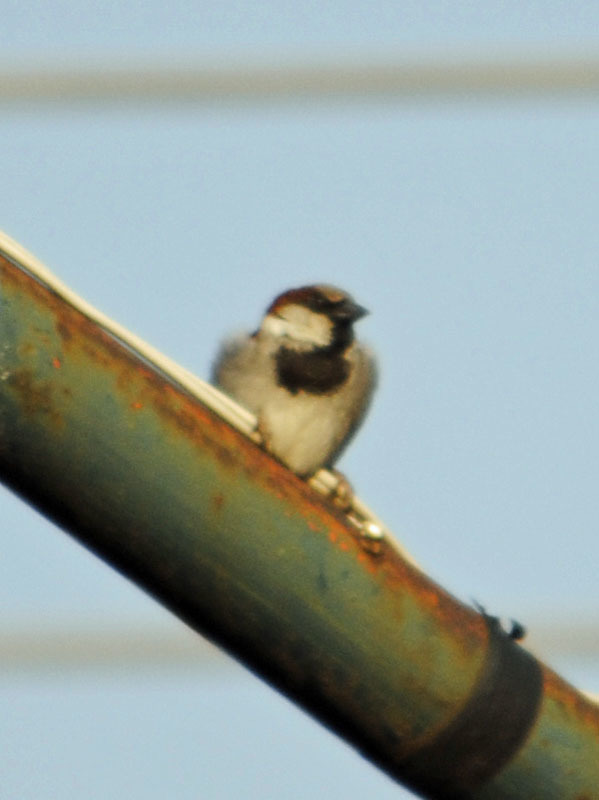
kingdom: Animalia
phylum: Chordata
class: Aves
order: Passeriformes
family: Passeridae
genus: Passer
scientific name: Passer domesticus
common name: House sparrow
